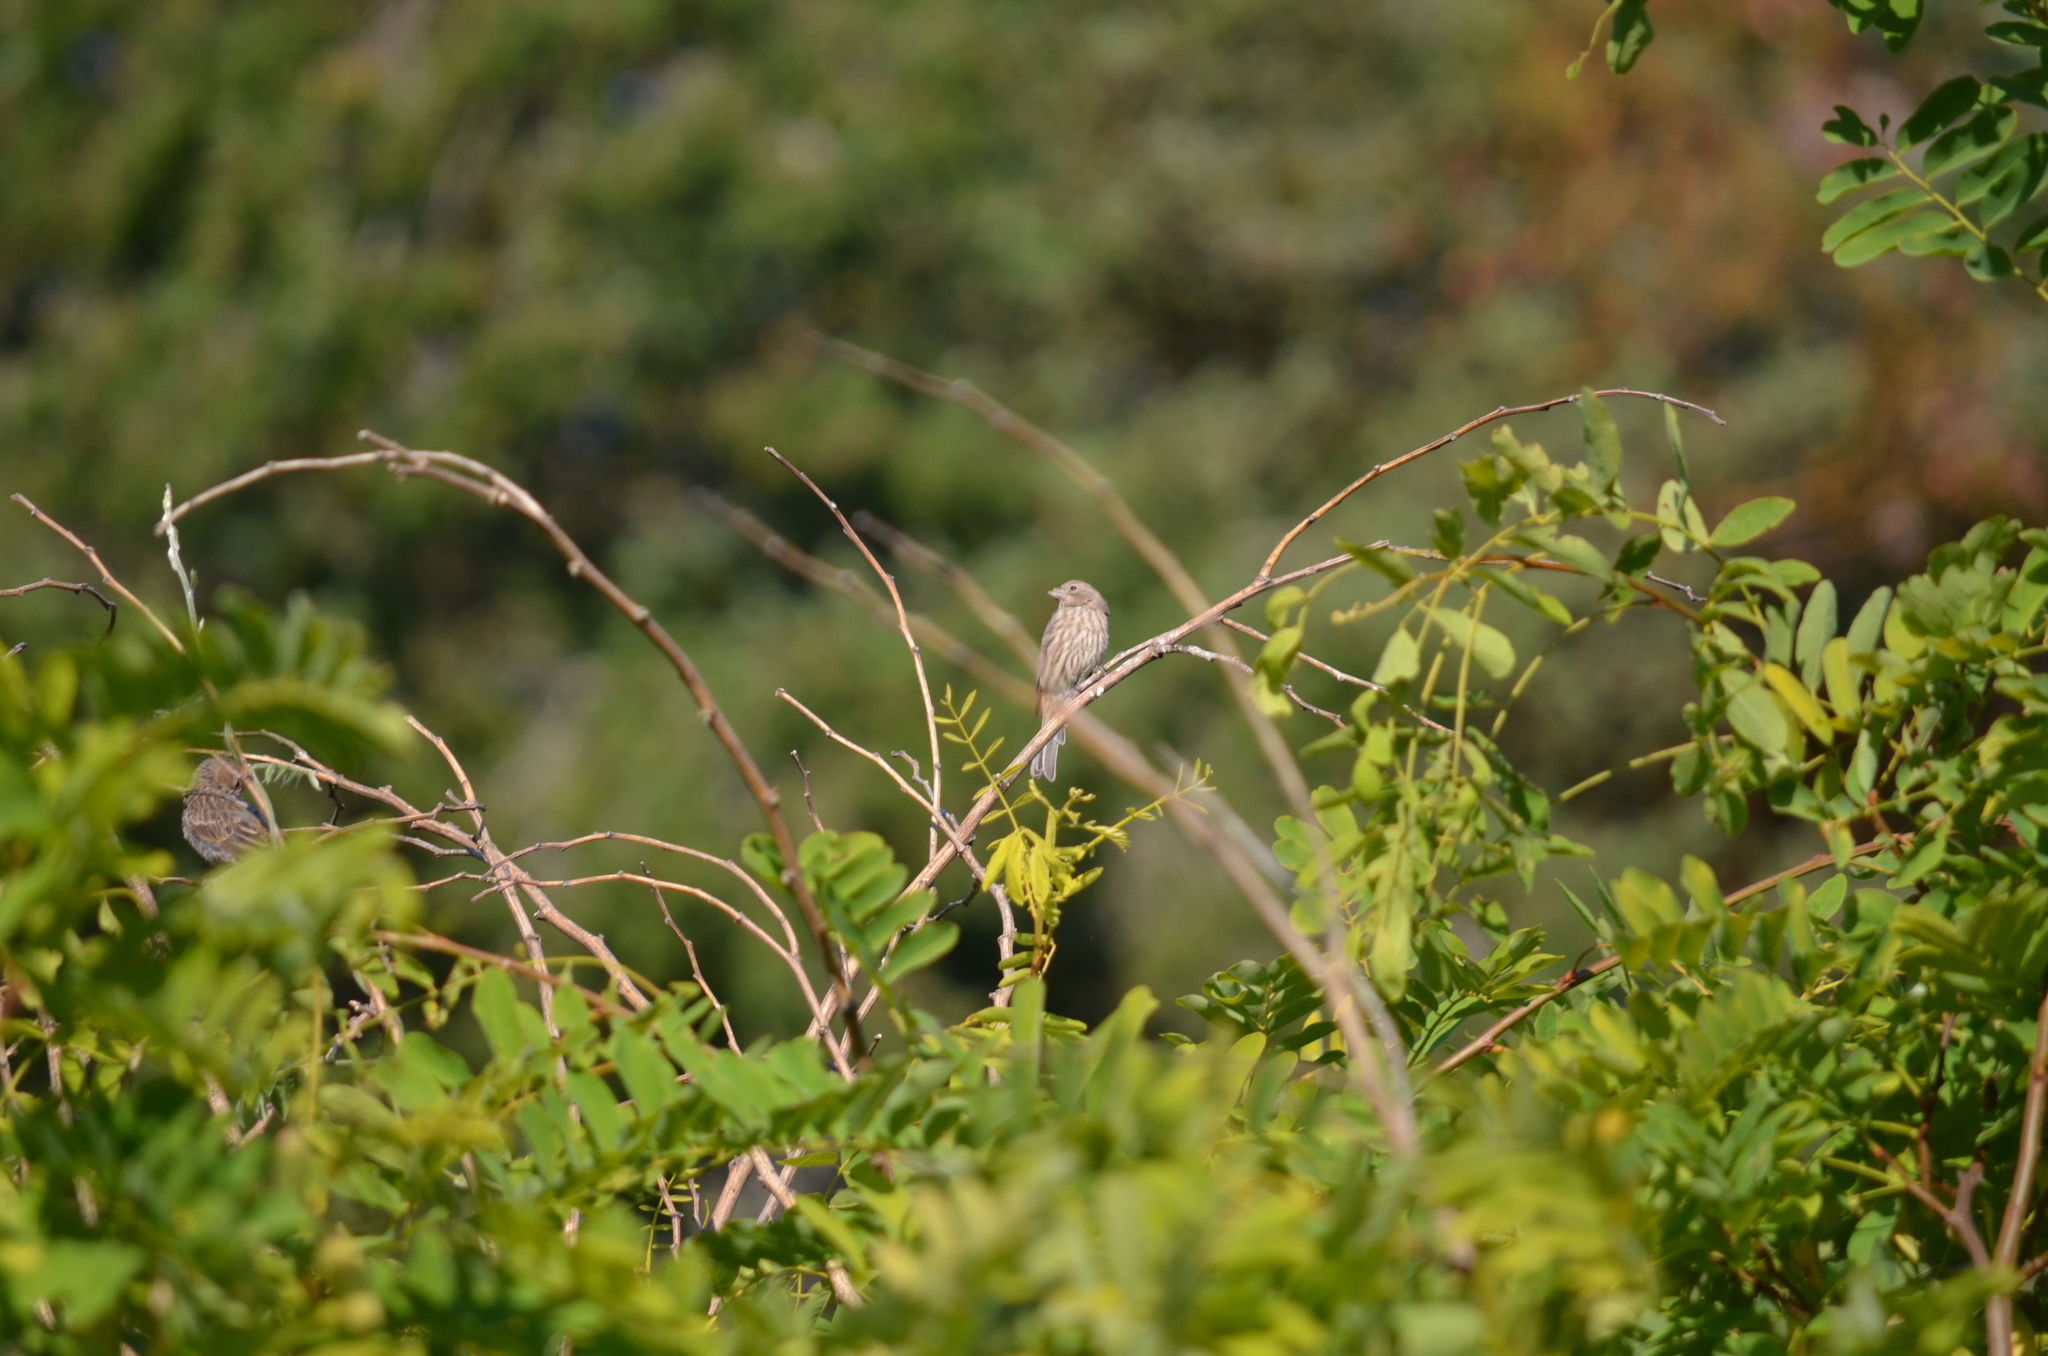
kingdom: Animalia
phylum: Chordata
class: Aves
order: Passeriformes
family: Fringillidae
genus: Haemorhous
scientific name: Haemorhous mexicanus
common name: House finch
